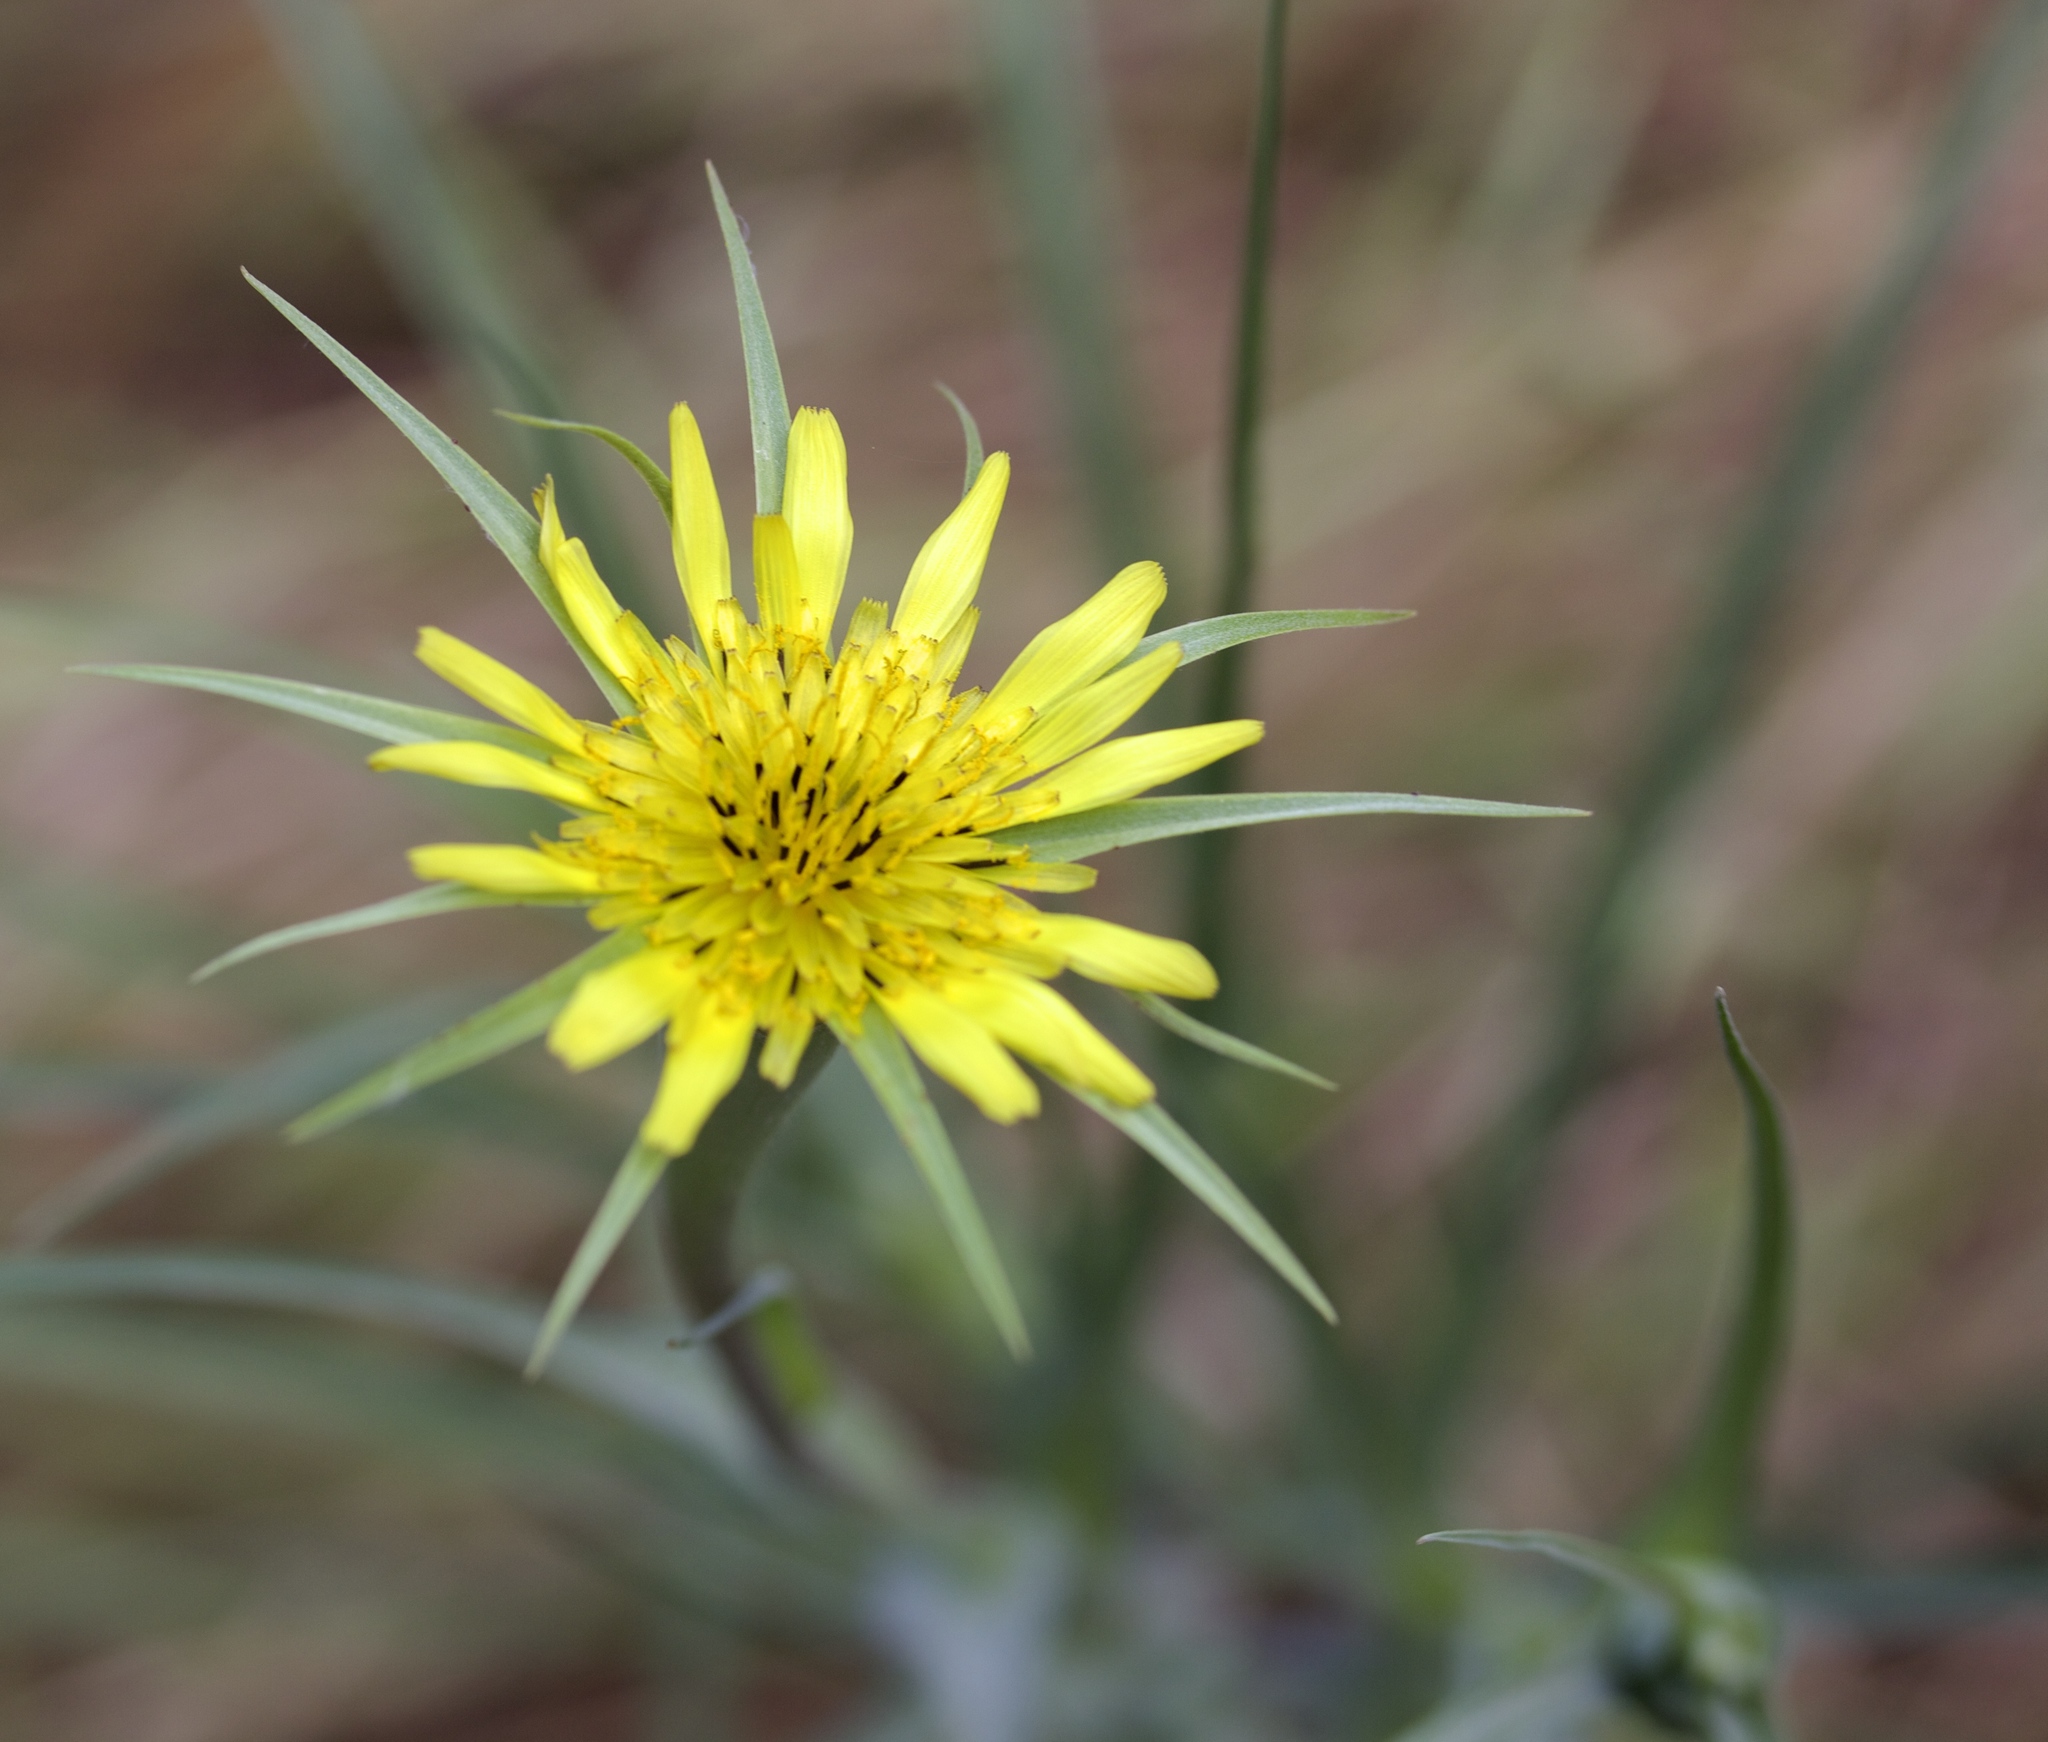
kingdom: Plantae
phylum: Tracheophyta
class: Magnoliopsida
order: Asterales
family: Asteraceae
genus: Tragopogon
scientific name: Tragopogon dubius
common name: Yellow salsify
